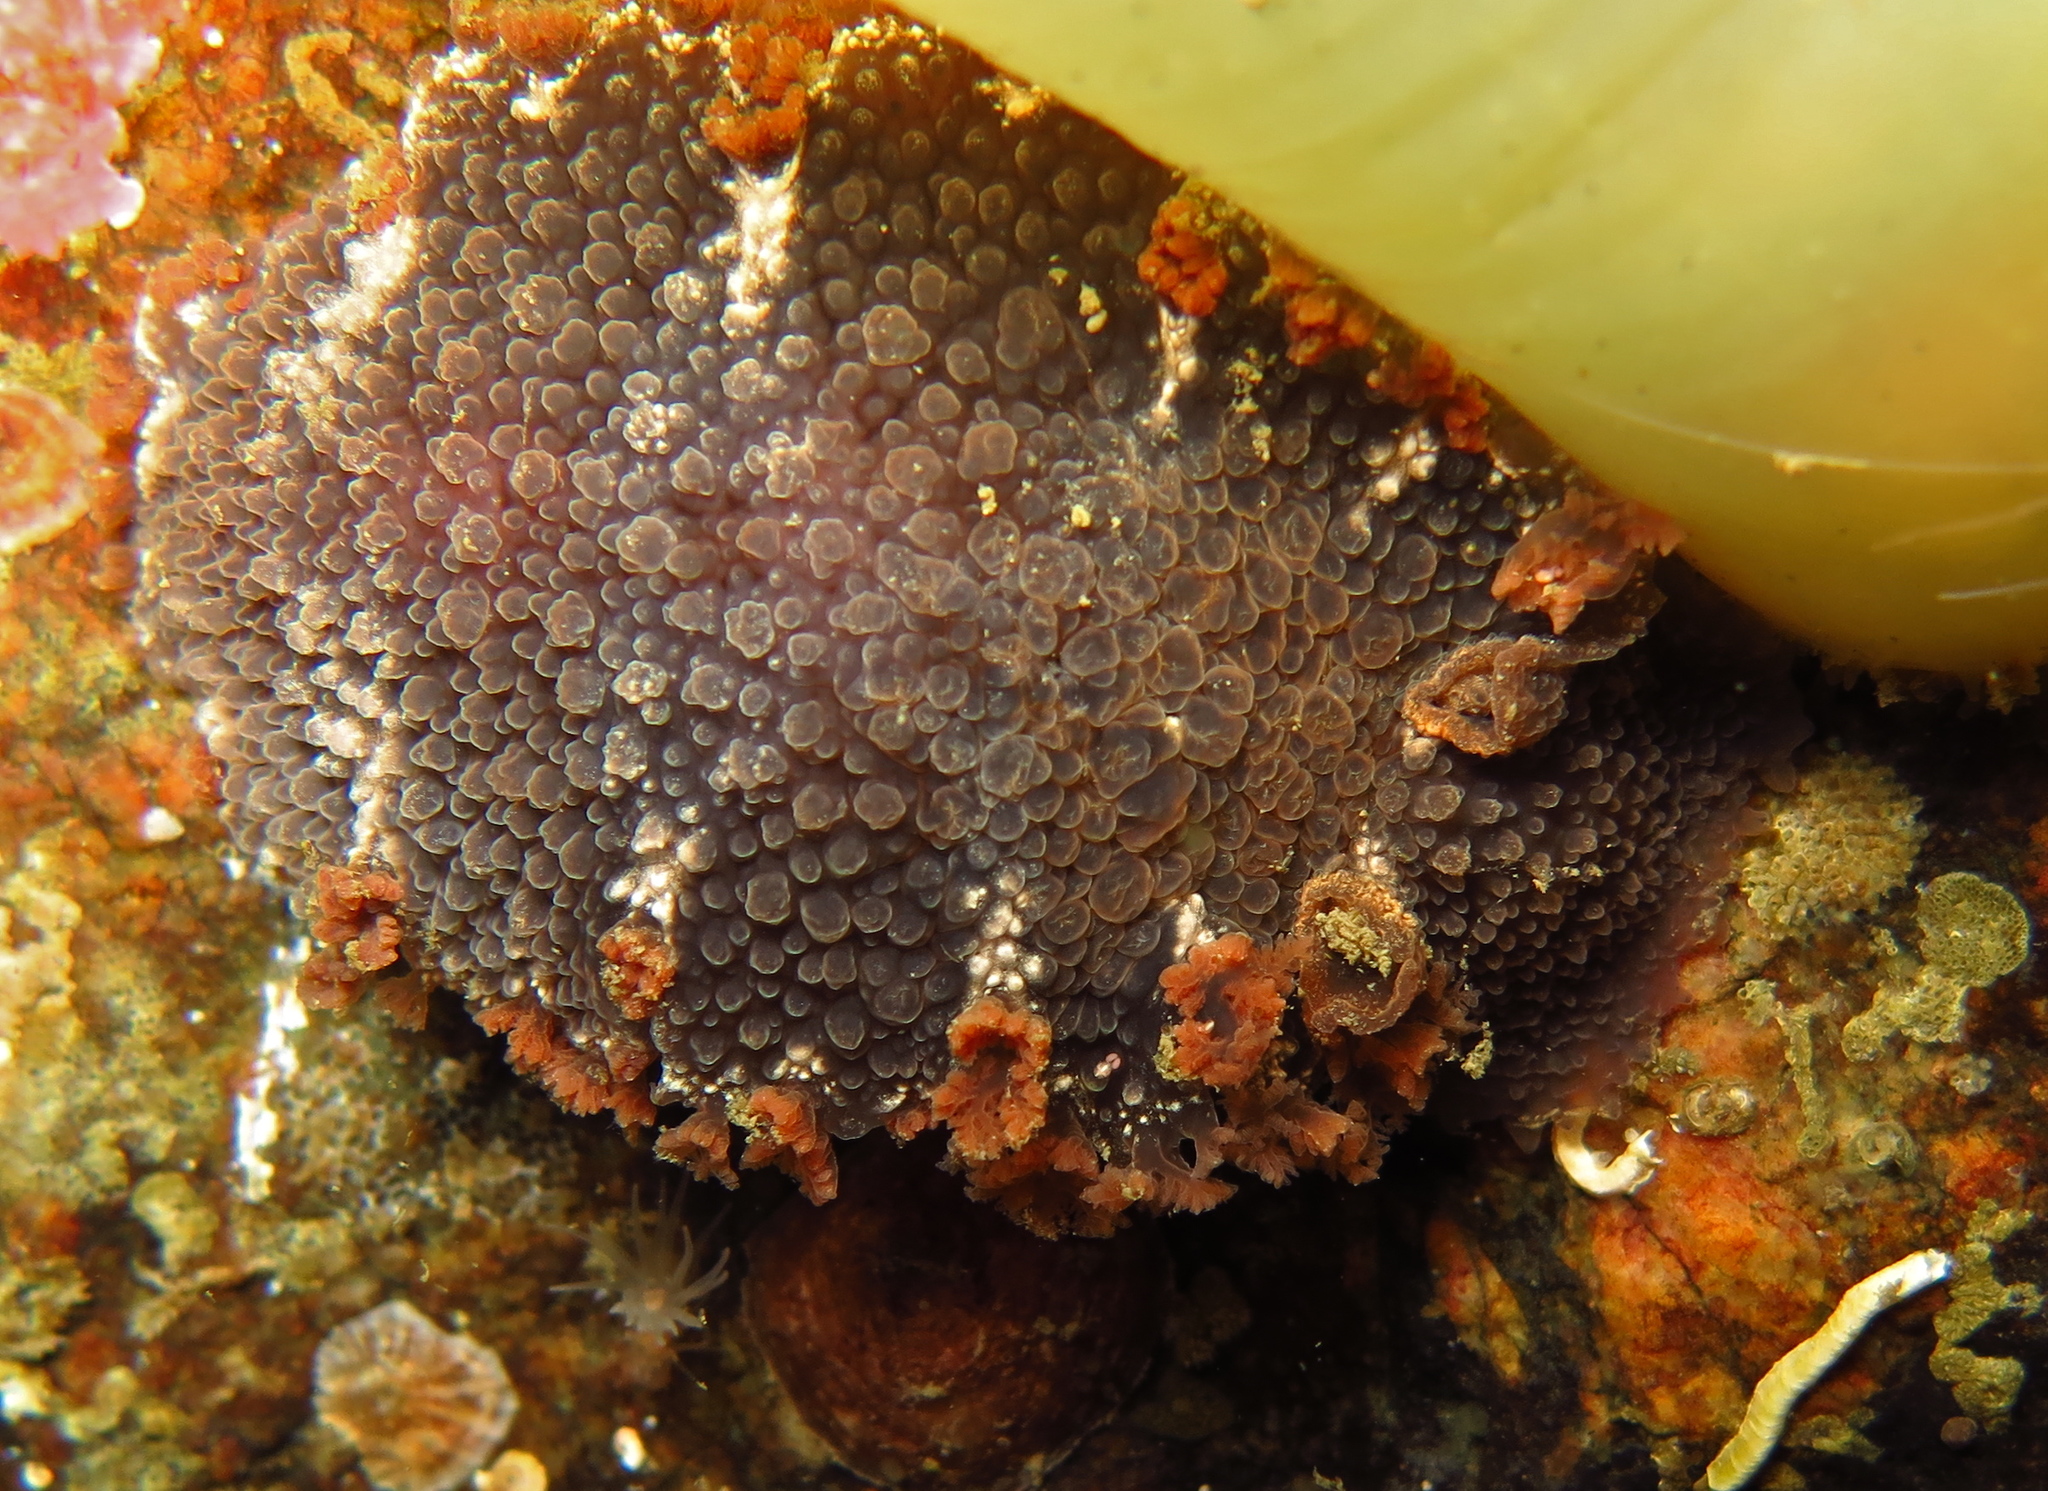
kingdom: Animalia
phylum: Mollusca
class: Gastropoda
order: Nudibranchia
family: Tritoniidae
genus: Tritonia
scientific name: Tritonia hombergii
